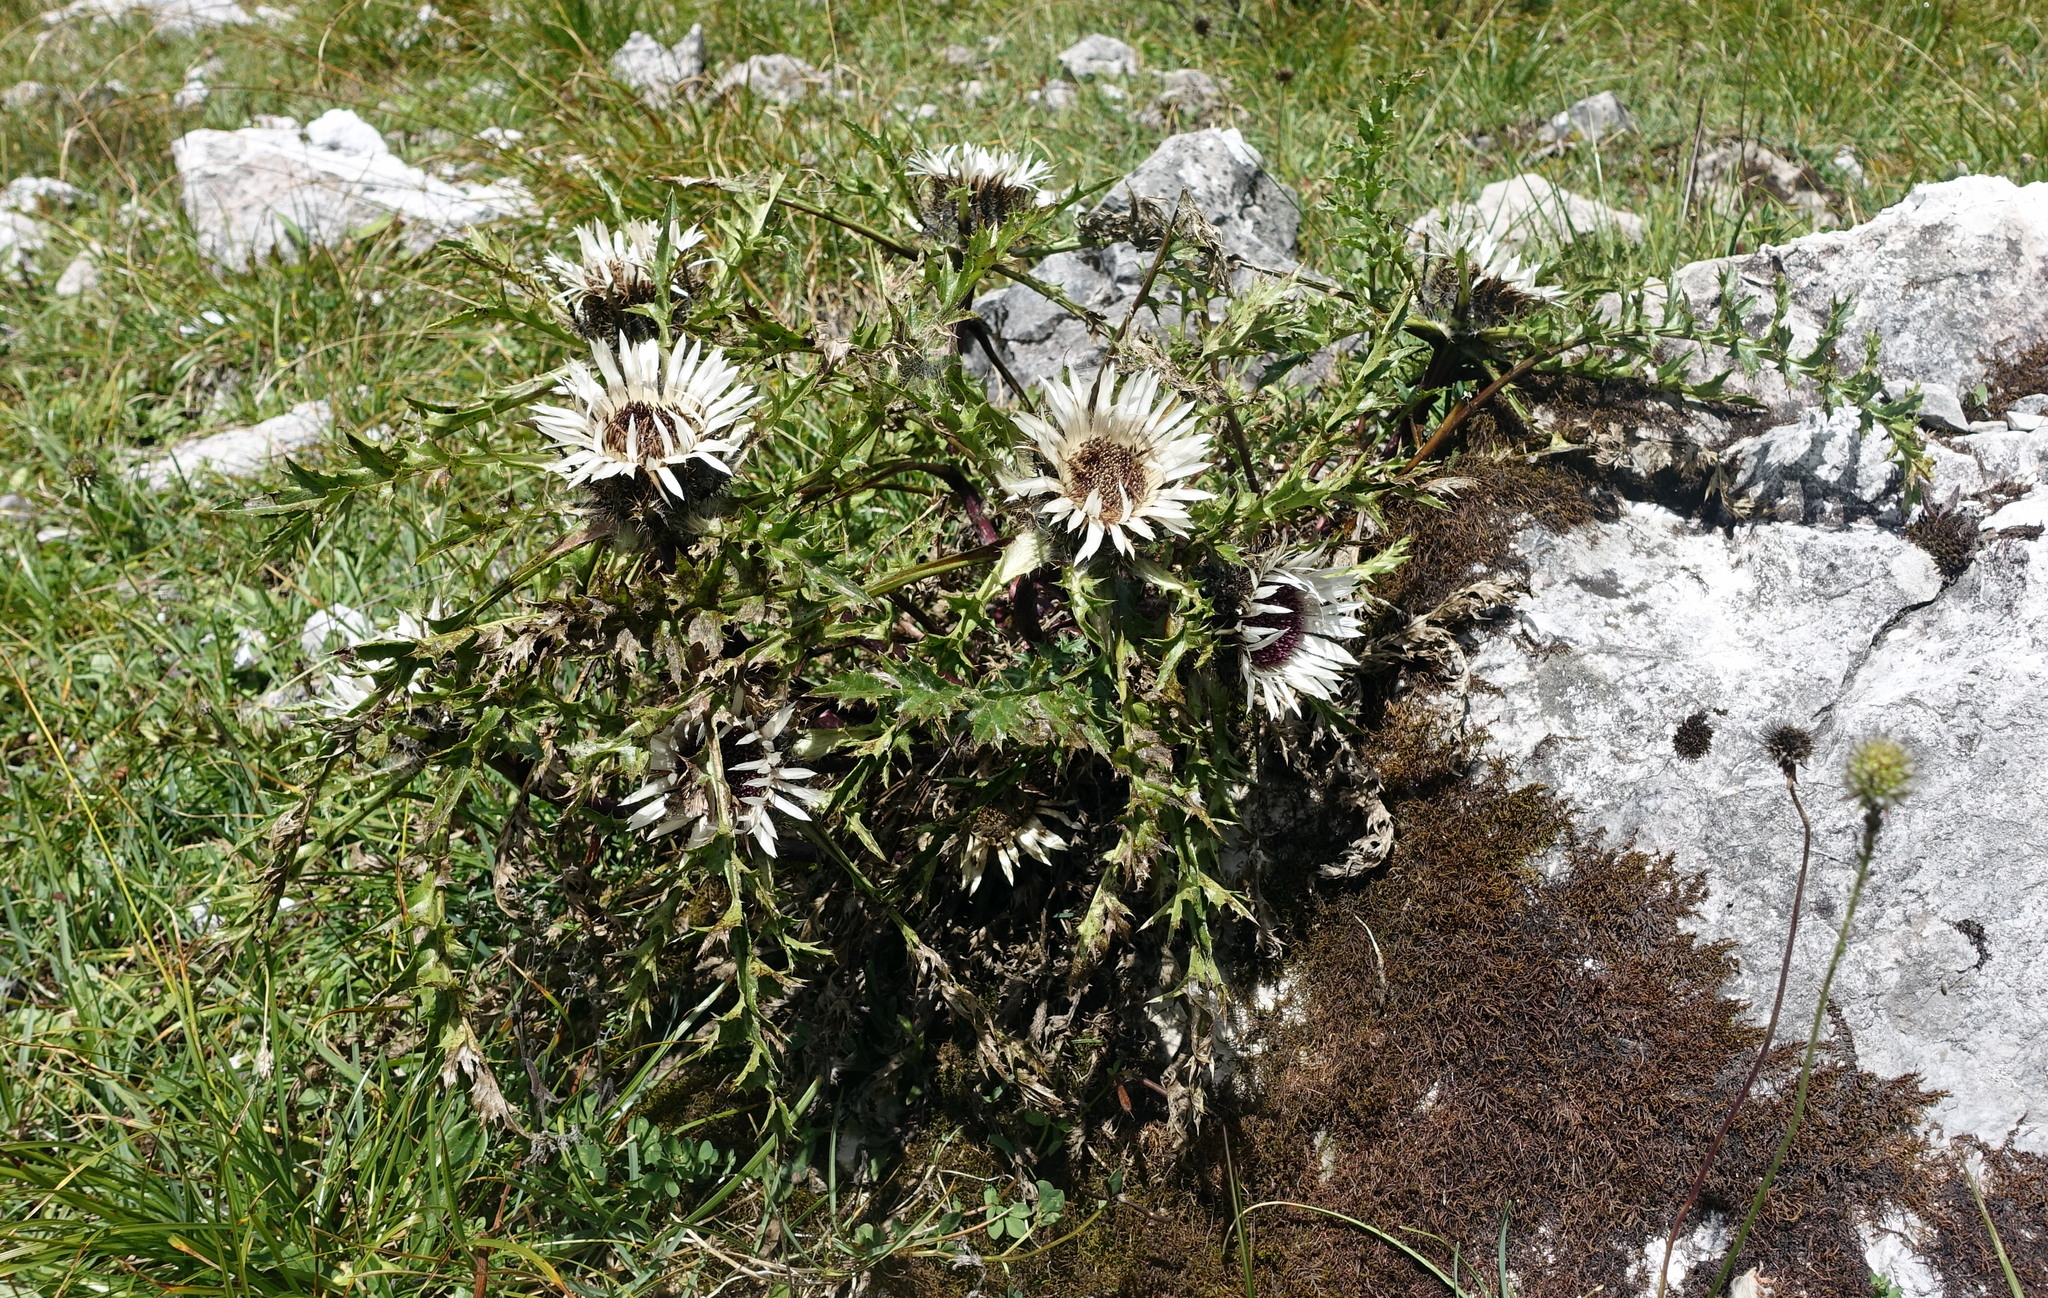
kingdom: Plantae
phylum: Tracheophyta
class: Magnoliopsida
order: Asterales
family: Asteraceae
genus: Carlina
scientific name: Carlina acaulis
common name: Stemless carline thistle
